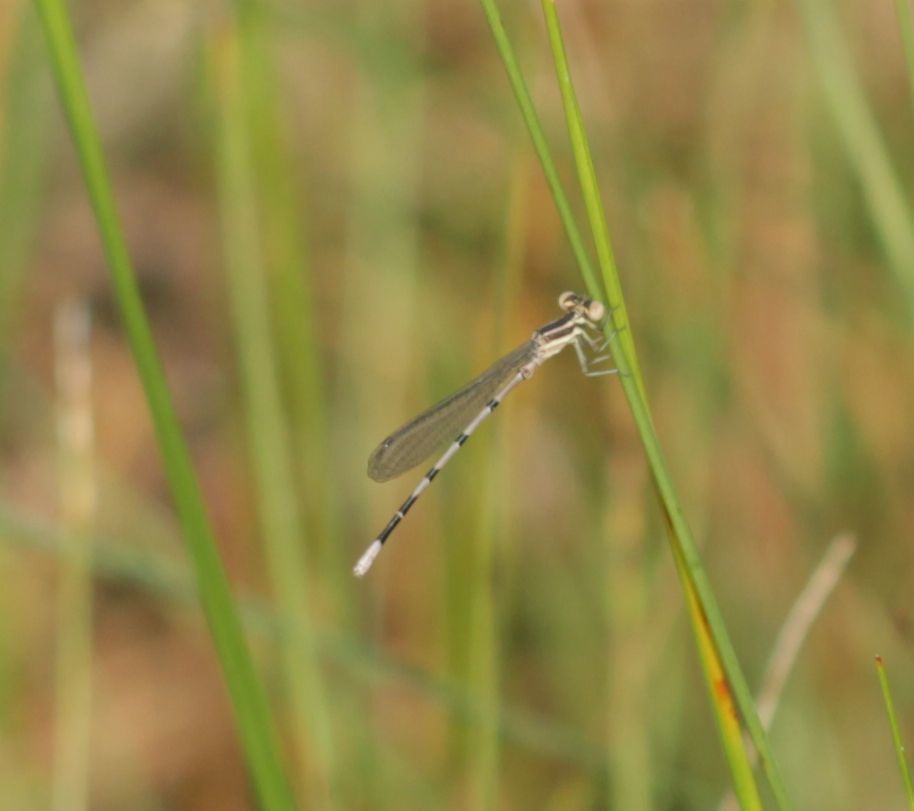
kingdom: Animalia
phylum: Arthropoda
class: Insecta
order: Odonata
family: Coenagrionidae
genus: Argia
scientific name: Argia bipunctulata
